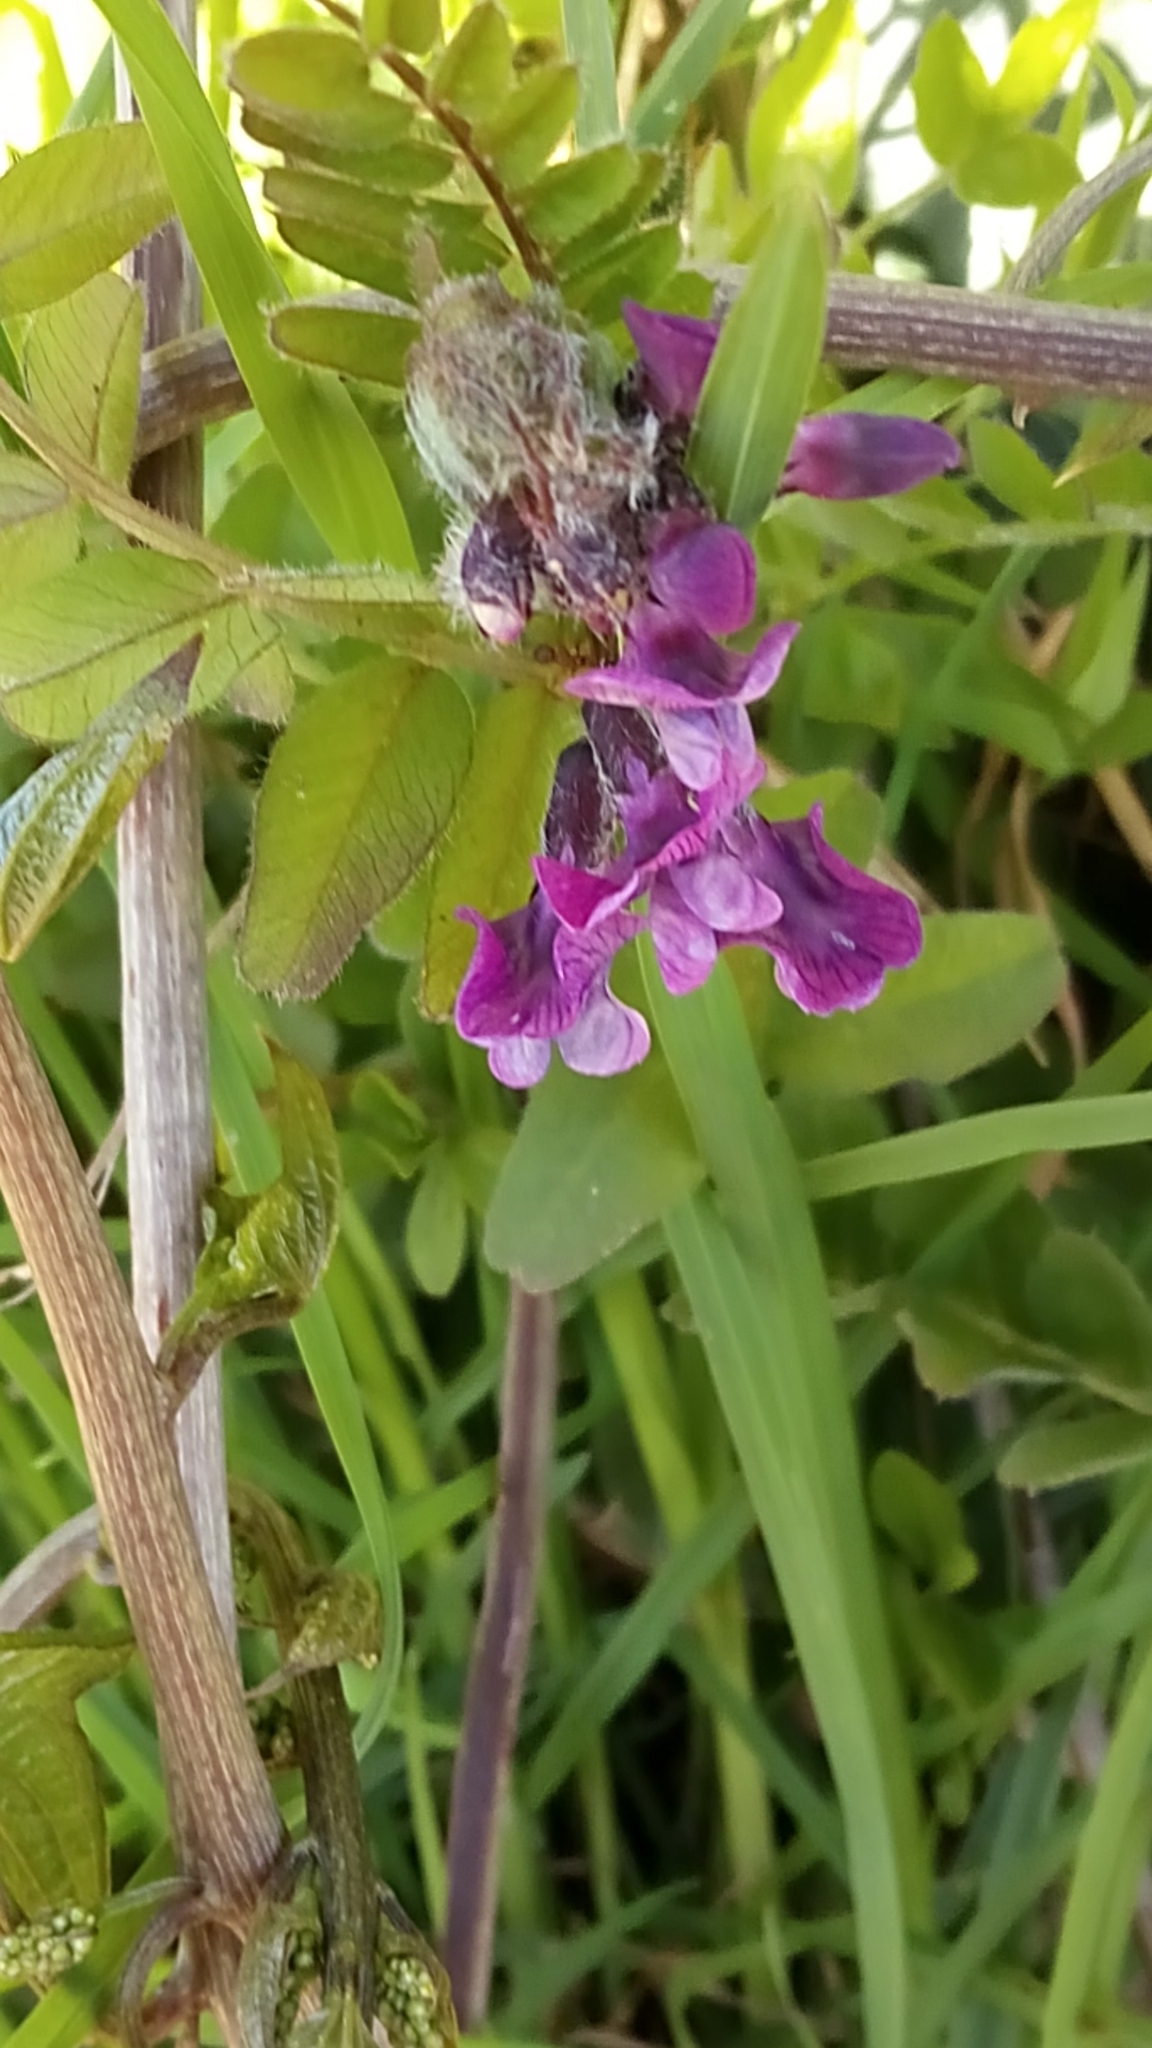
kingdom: Plantae
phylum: Tracheophyta
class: Magnoliopsida
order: Fabales
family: Fabaceae
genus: Vicia
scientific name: Vicia sepium
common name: Bush vetch
